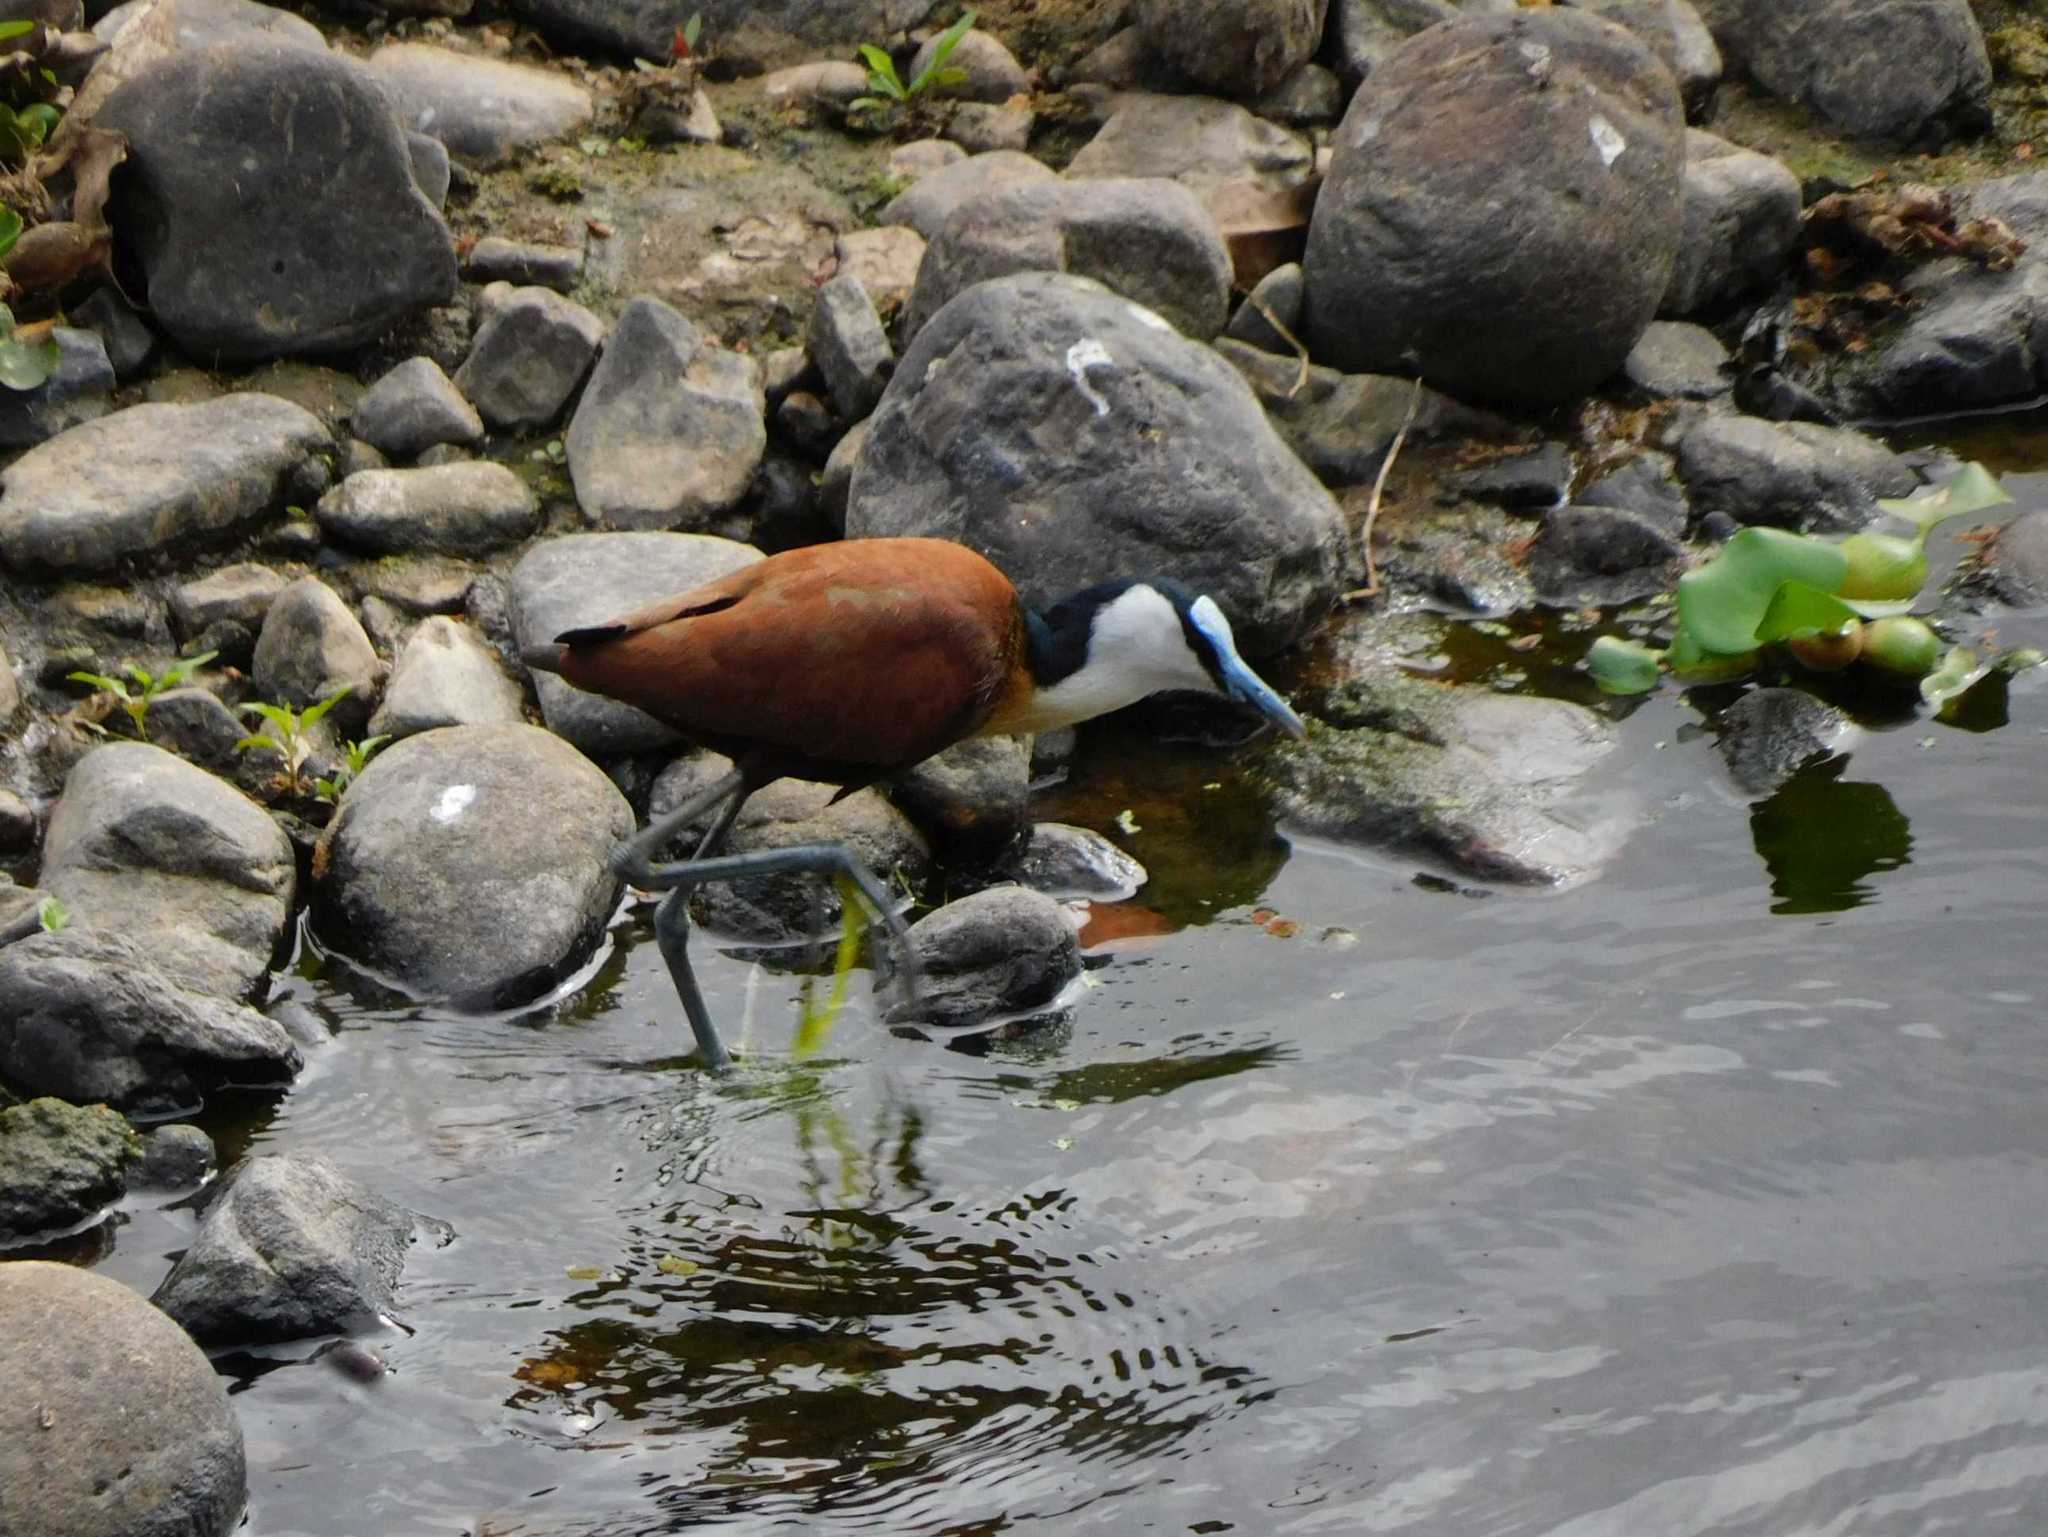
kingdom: Animalia
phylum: Chordata
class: Aves
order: Charadriiformes
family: Jacanidae
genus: Actophilornis
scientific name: Actophilornis africanus
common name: African jacana
